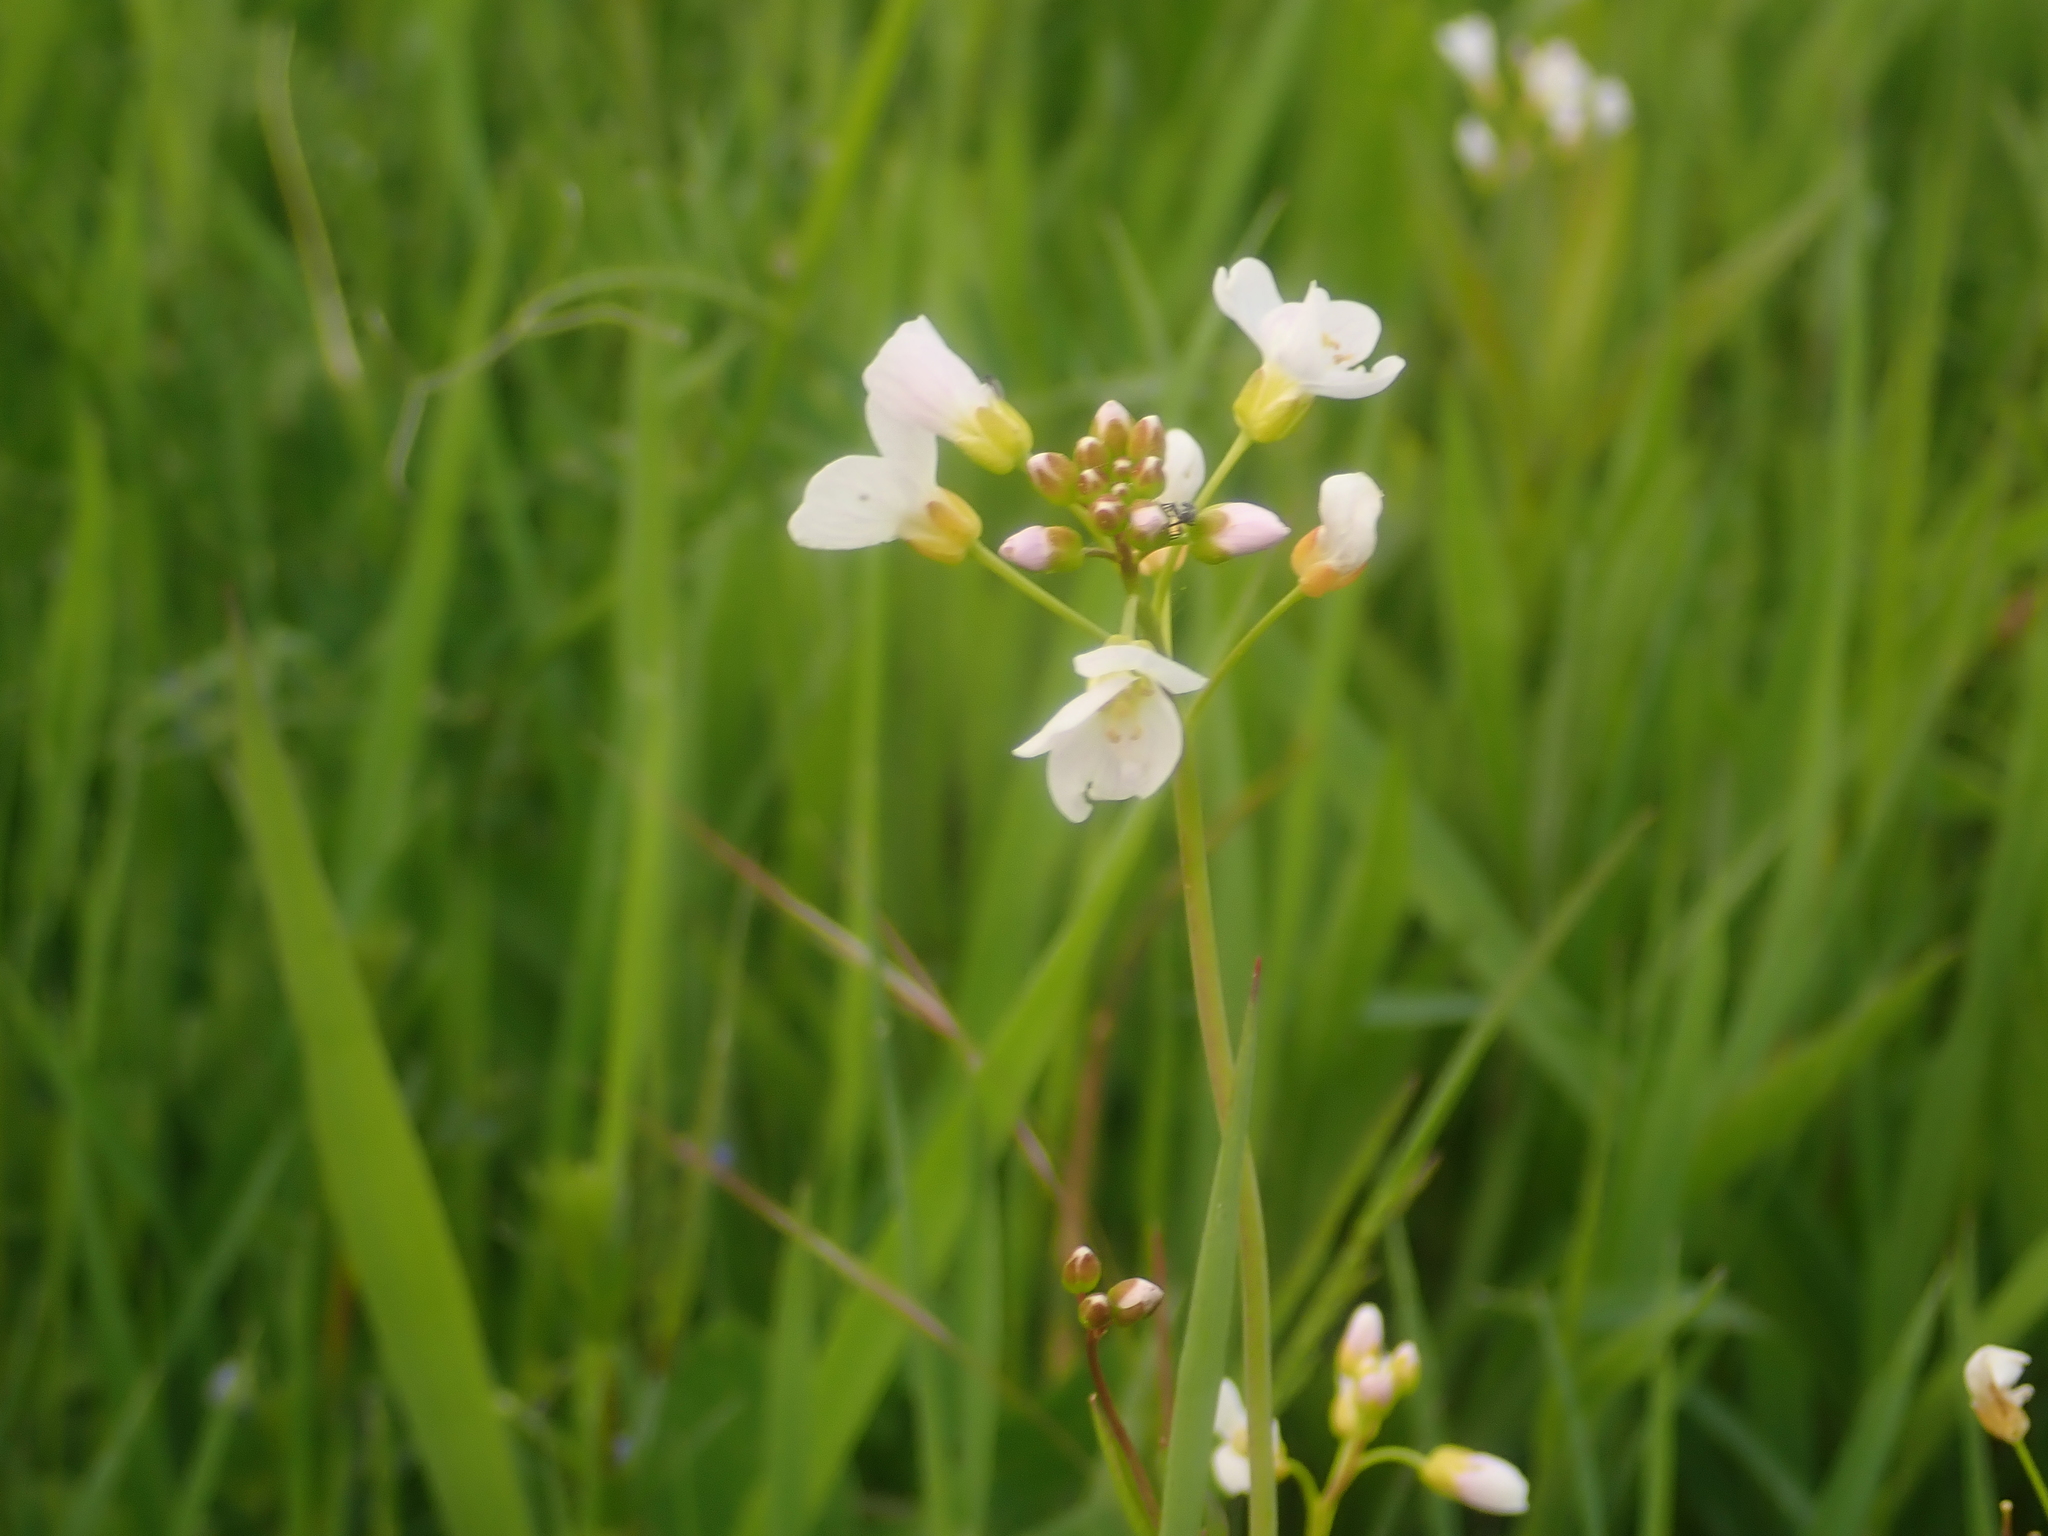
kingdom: Plantae
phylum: Tracheophyta
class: Magnoliopsida
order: Brassicales
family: Brassicaceae
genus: Cardamine
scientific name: Cardamine pratensis
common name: Cuckoo flower
